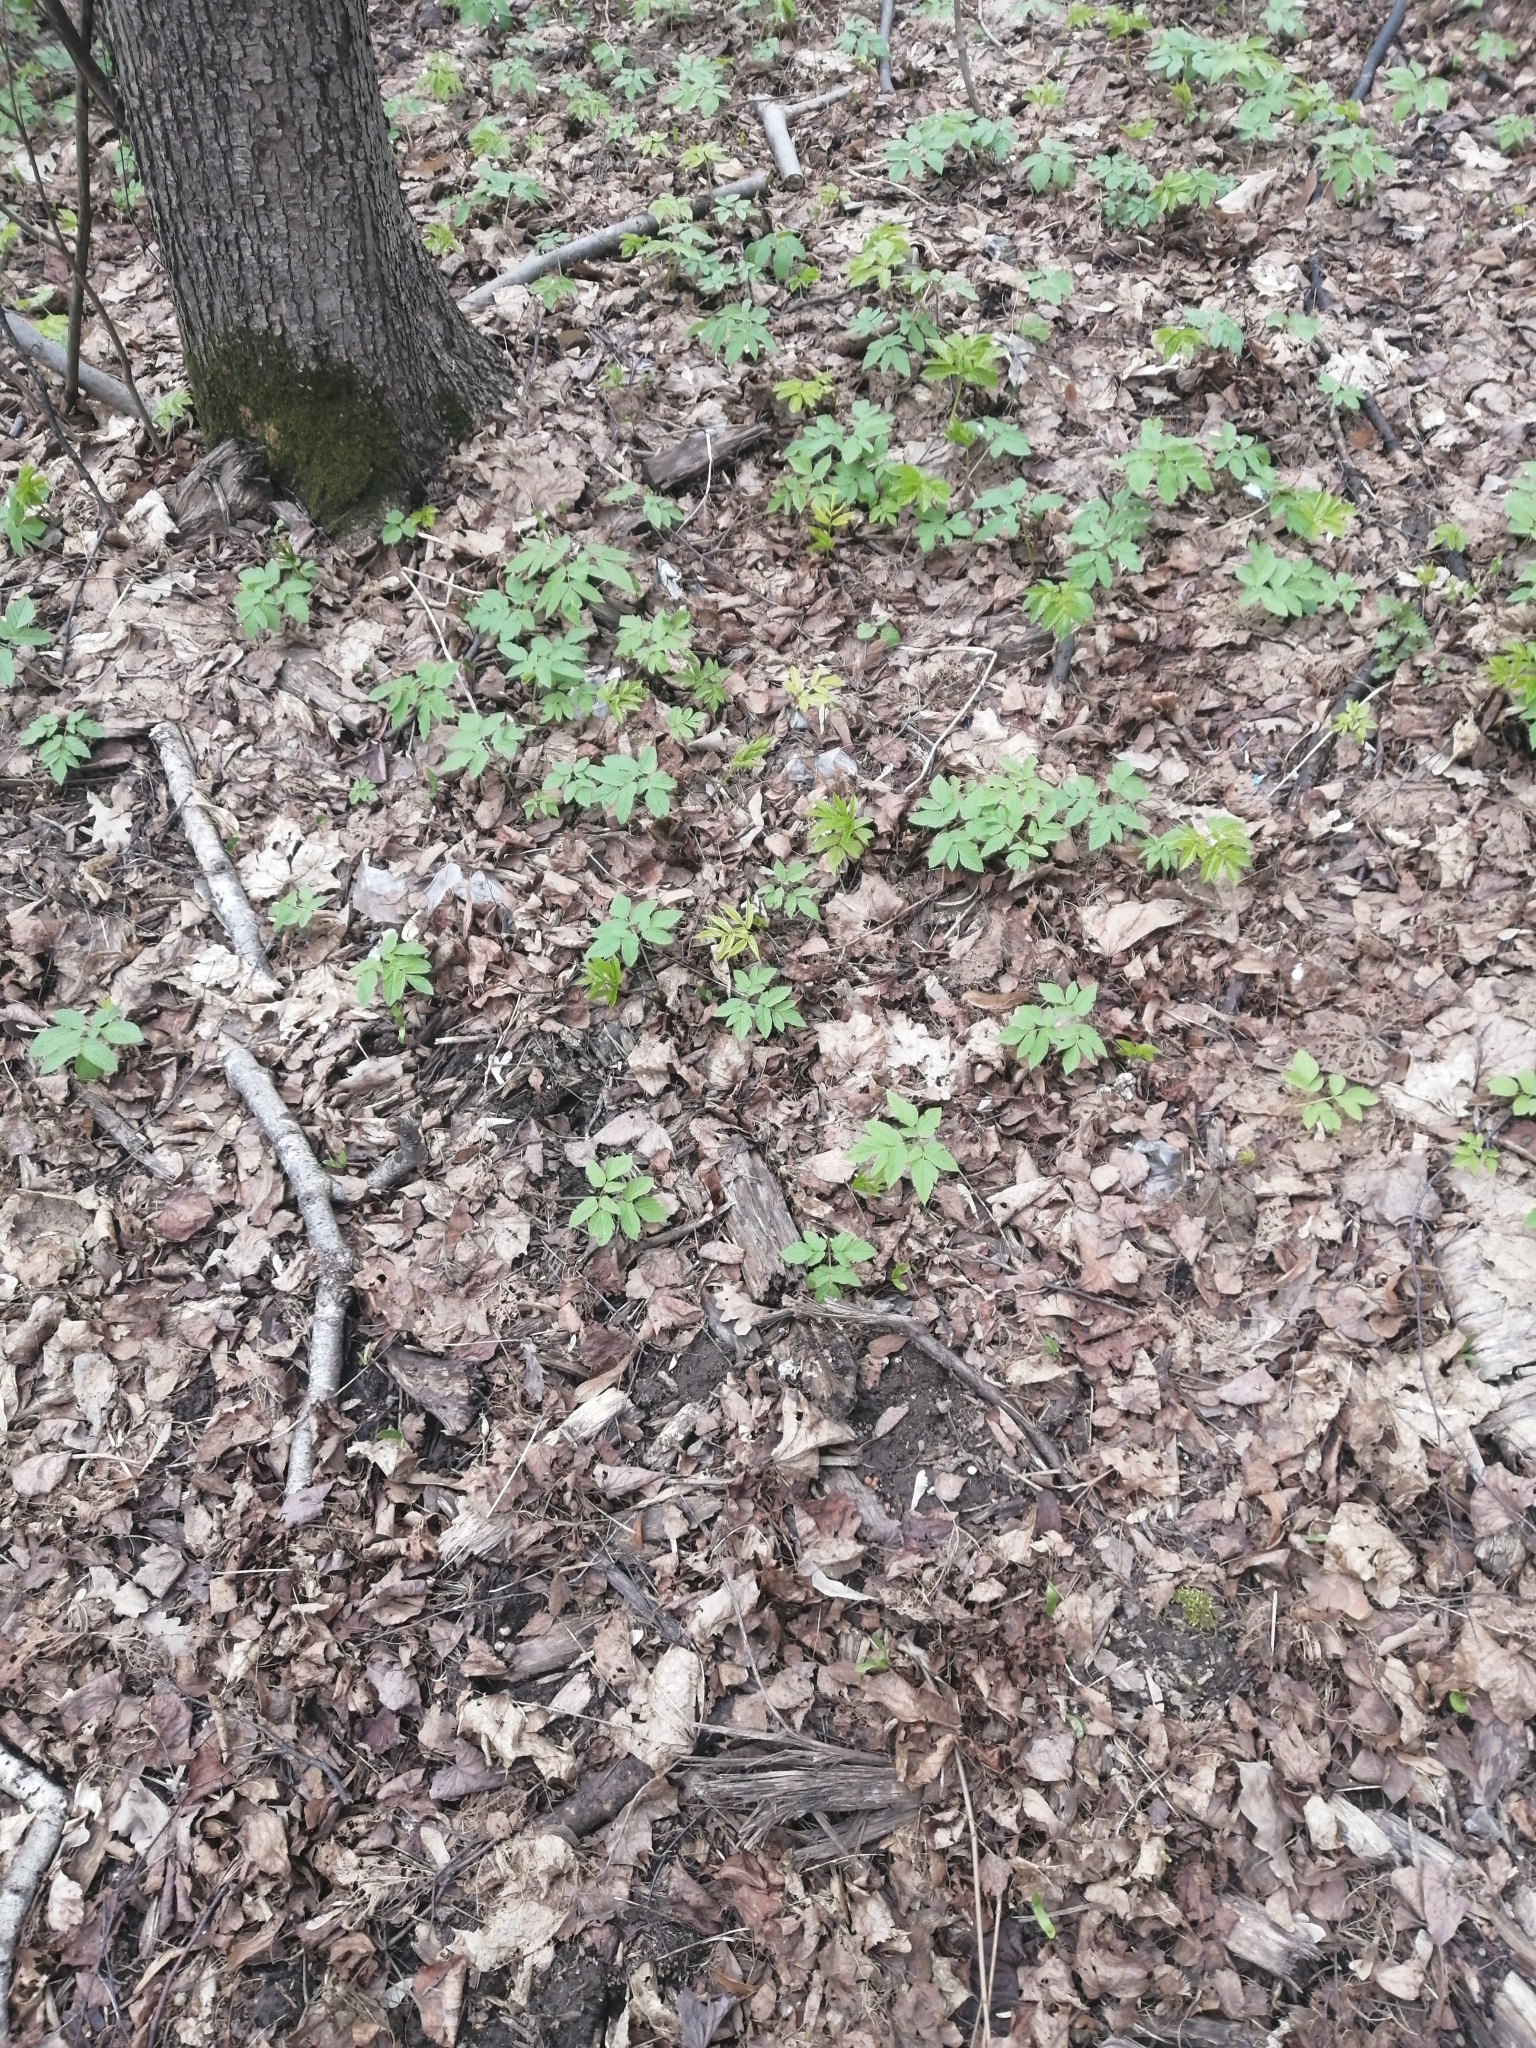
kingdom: Plantae
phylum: Tracheophyta
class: Magnoliopsida
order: Apiales
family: Apiaceae
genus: Aegopodium
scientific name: Aegopodium podagraria
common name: Ground-elder
